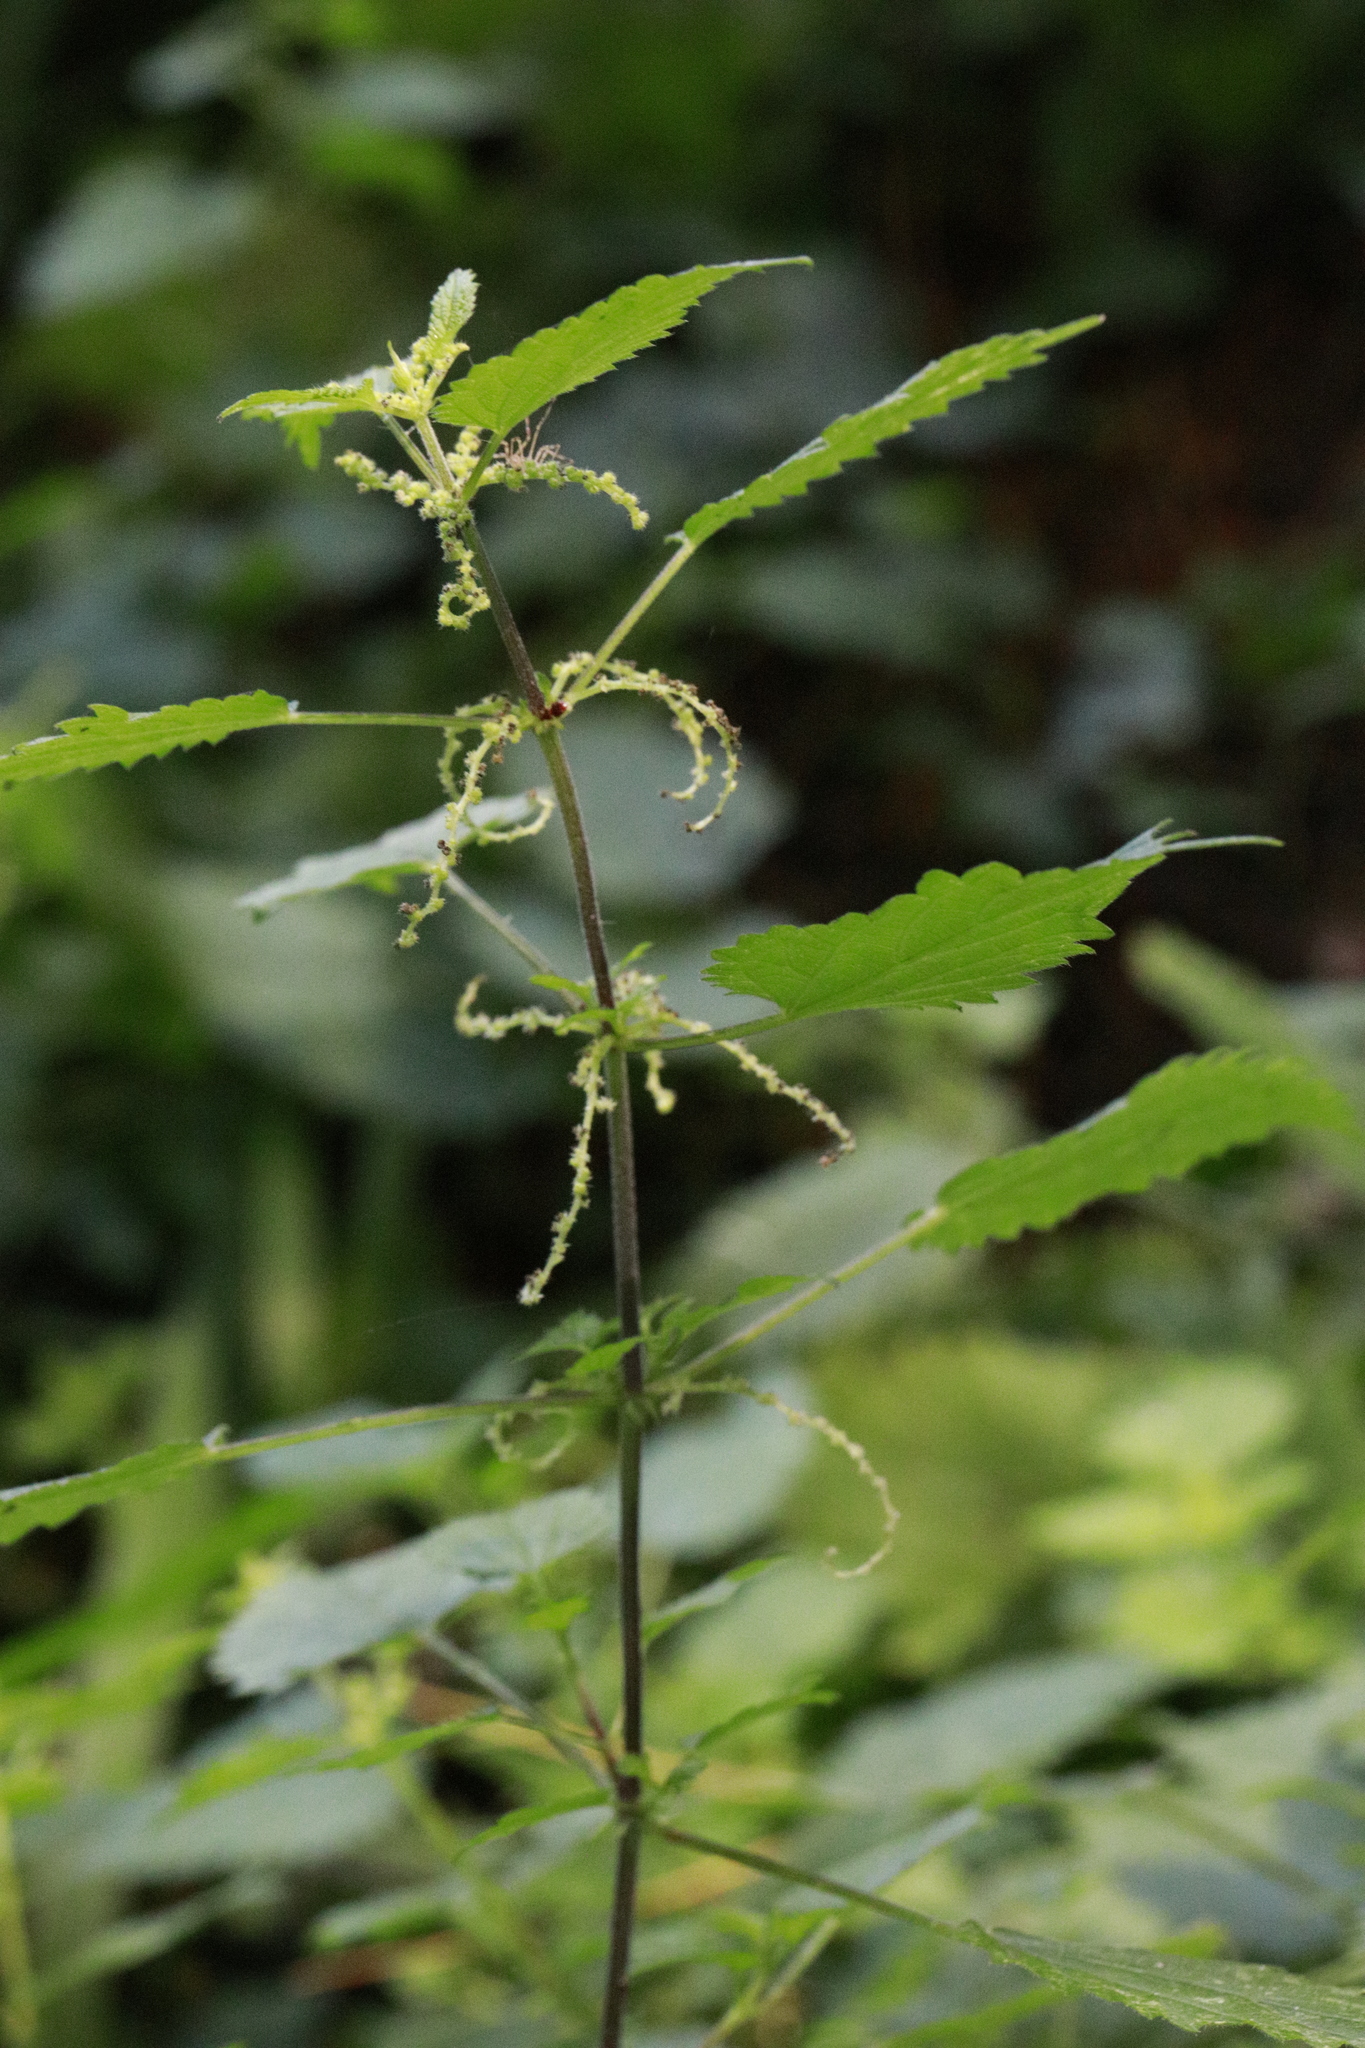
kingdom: Plantae
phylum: Tracheophyta
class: Magnoliopsida
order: Rosales
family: Urticaceae
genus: Urtica
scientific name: Urtica dioica
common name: Common nettle
